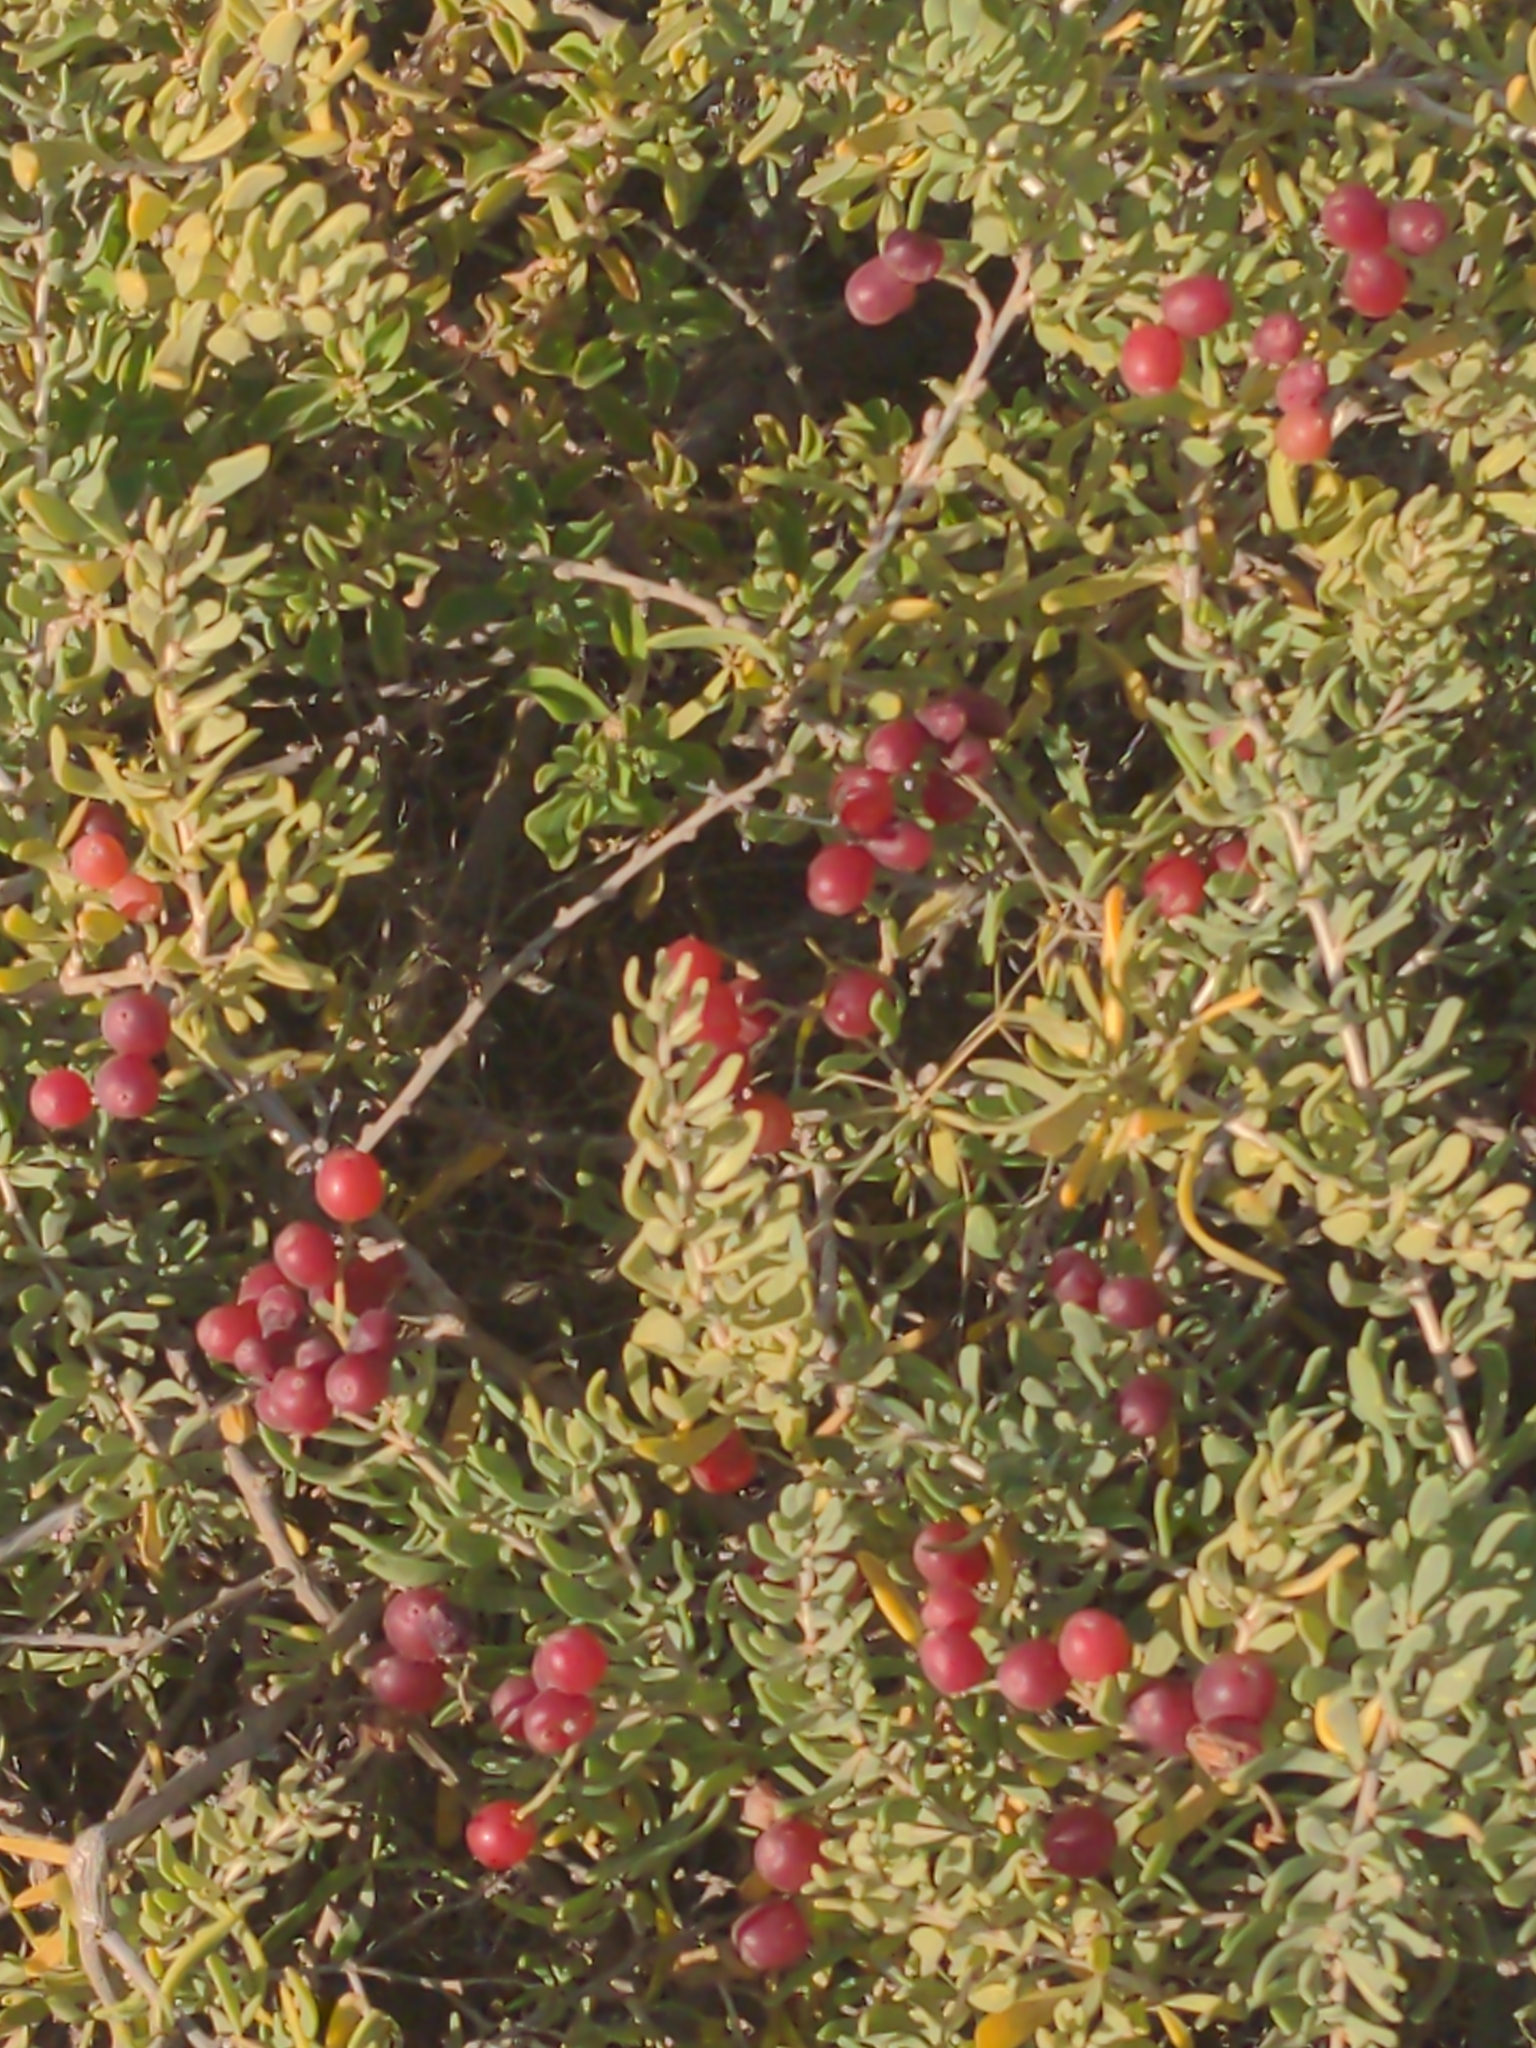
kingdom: Plantae
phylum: Tracheophyta
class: Magnoliopsida
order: Sapindales
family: Nitrariaceae
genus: Nitraria
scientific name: Nitraria billardierei
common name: Dillonbush
